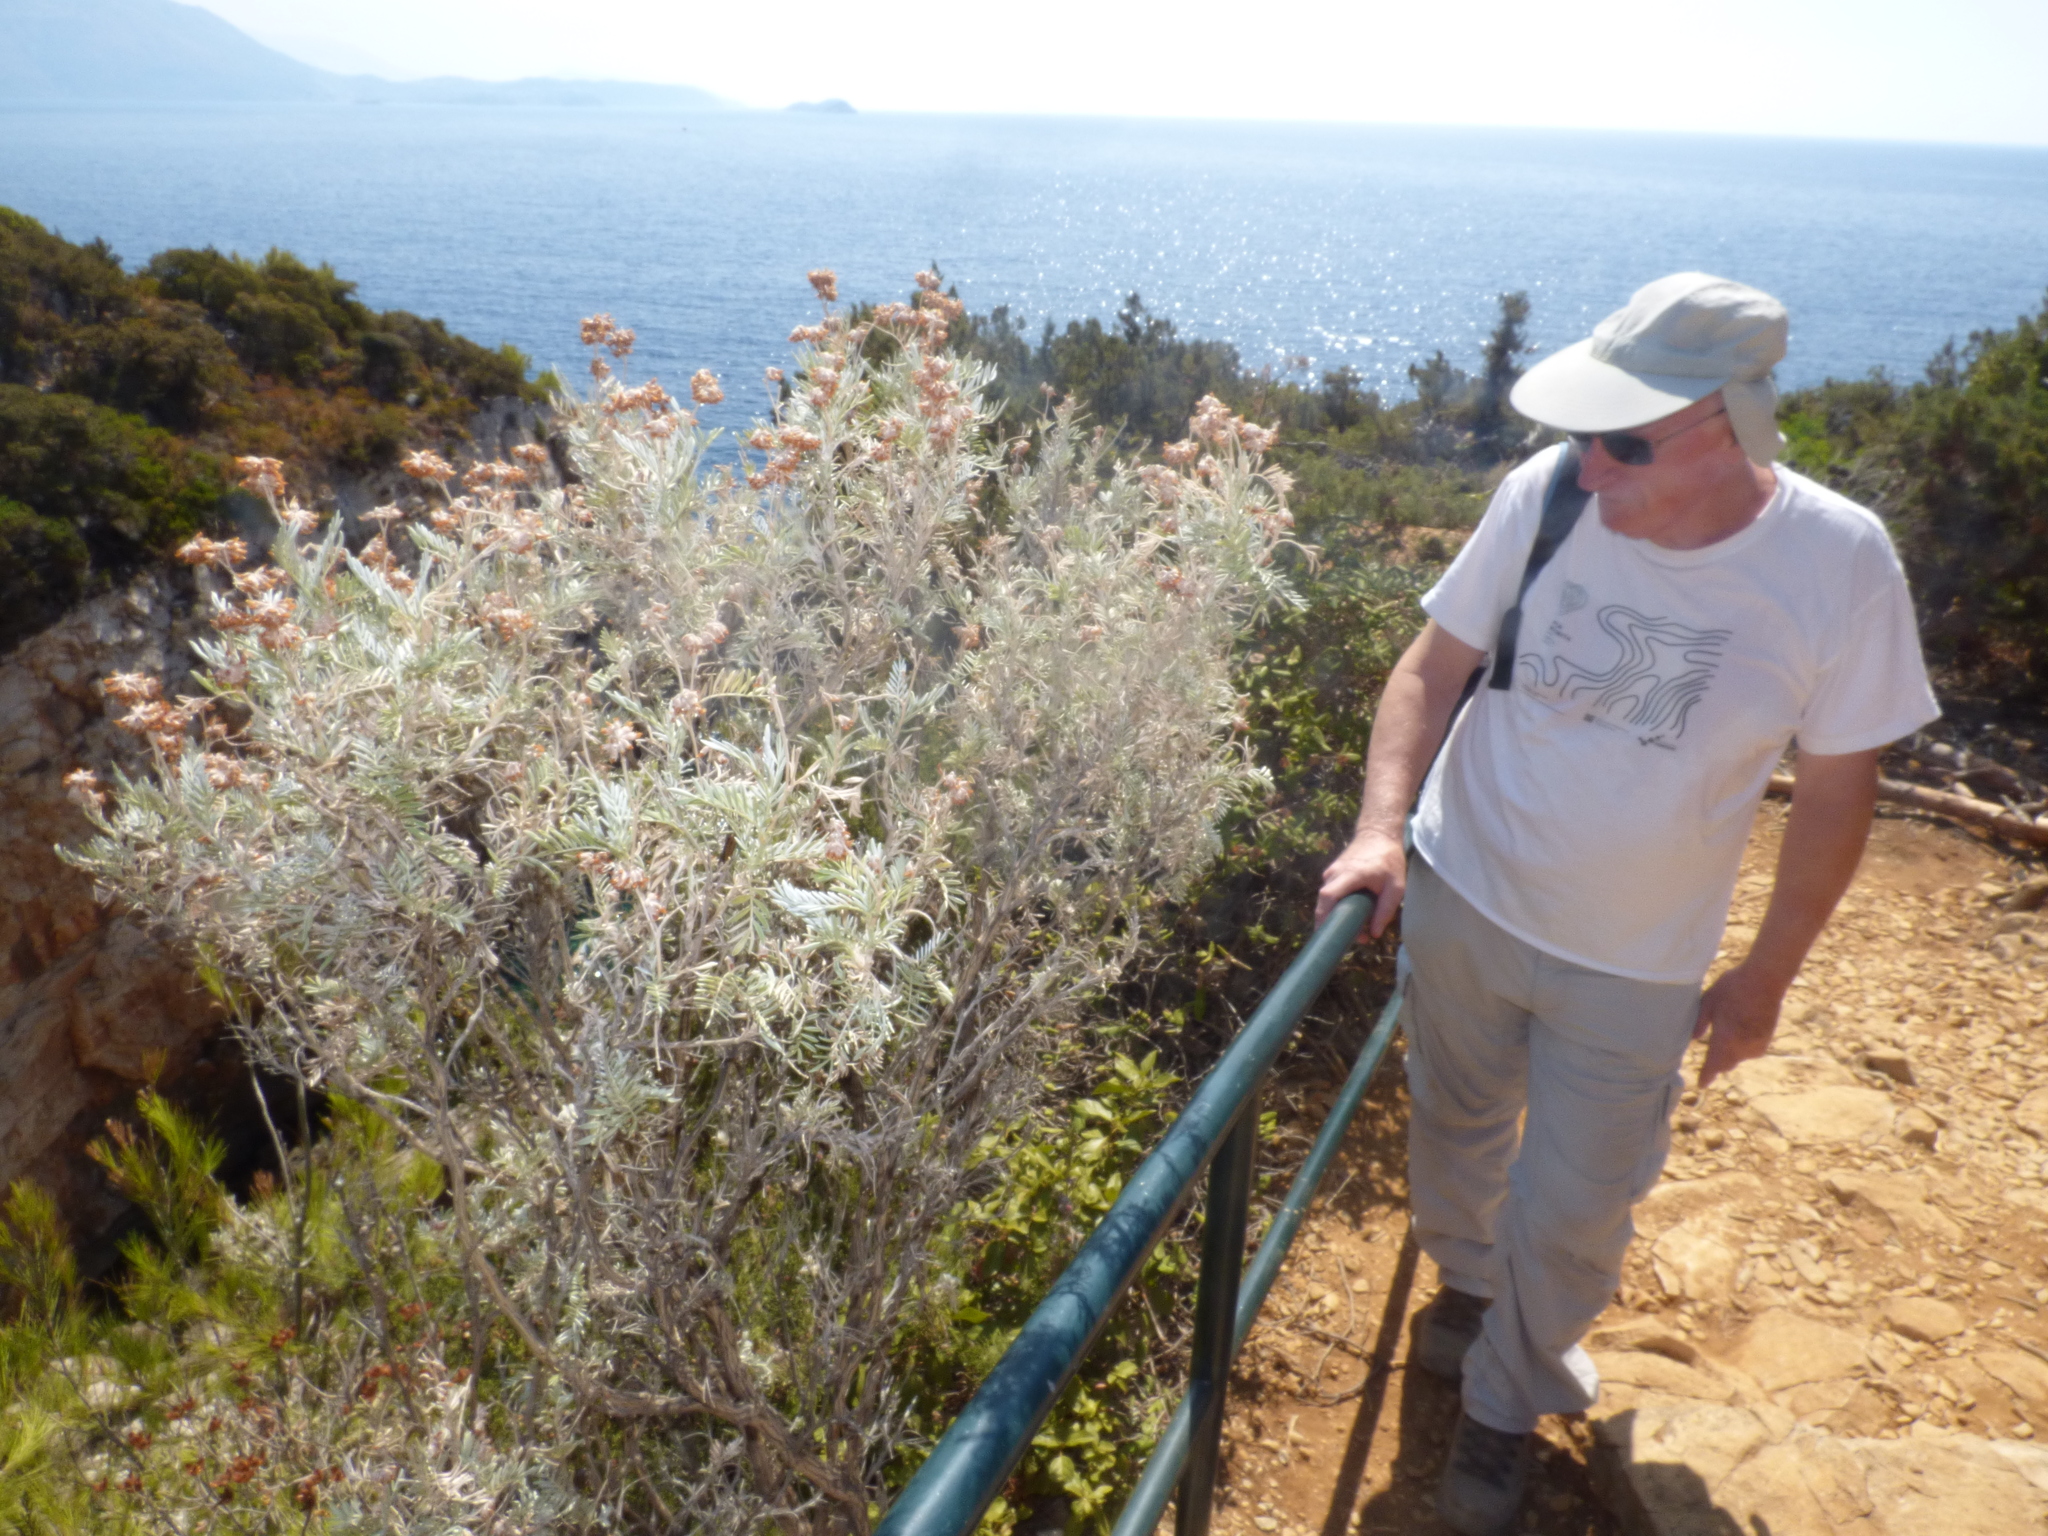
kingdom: Plantae
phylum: Tracheophyta
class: Magnoliopsida
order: Fabales
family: Fabaceae
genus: Anthyllis
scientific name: Anthyllis barba-jovis
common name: Jupiter's-beard
